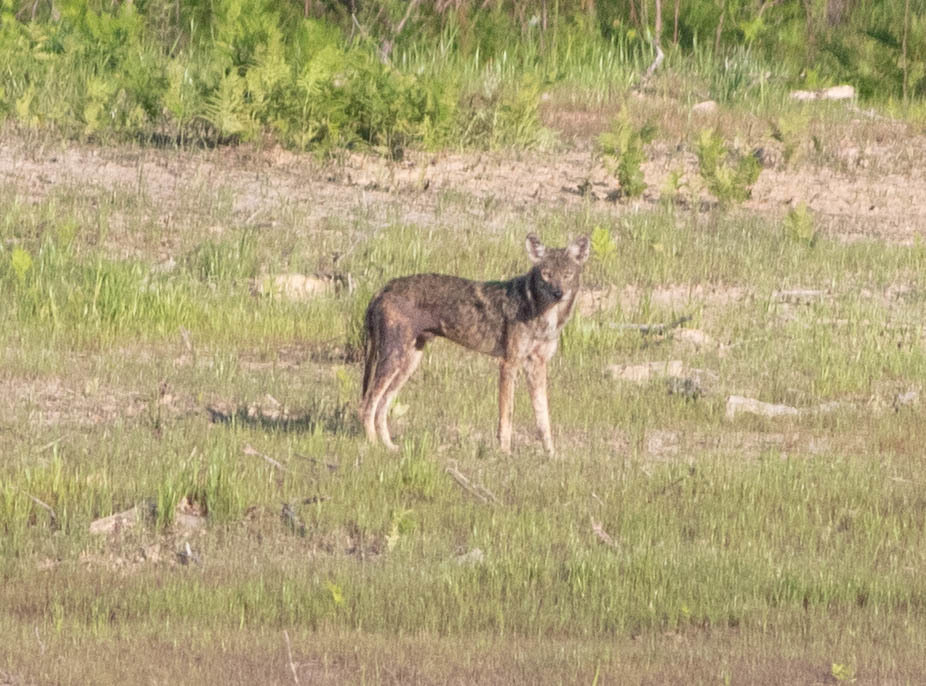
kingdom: Animalia
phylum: Chordata
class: Mammalia
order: Carnivora
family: Canidae
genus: Canis
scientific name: Canis latrans
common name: Coyote
